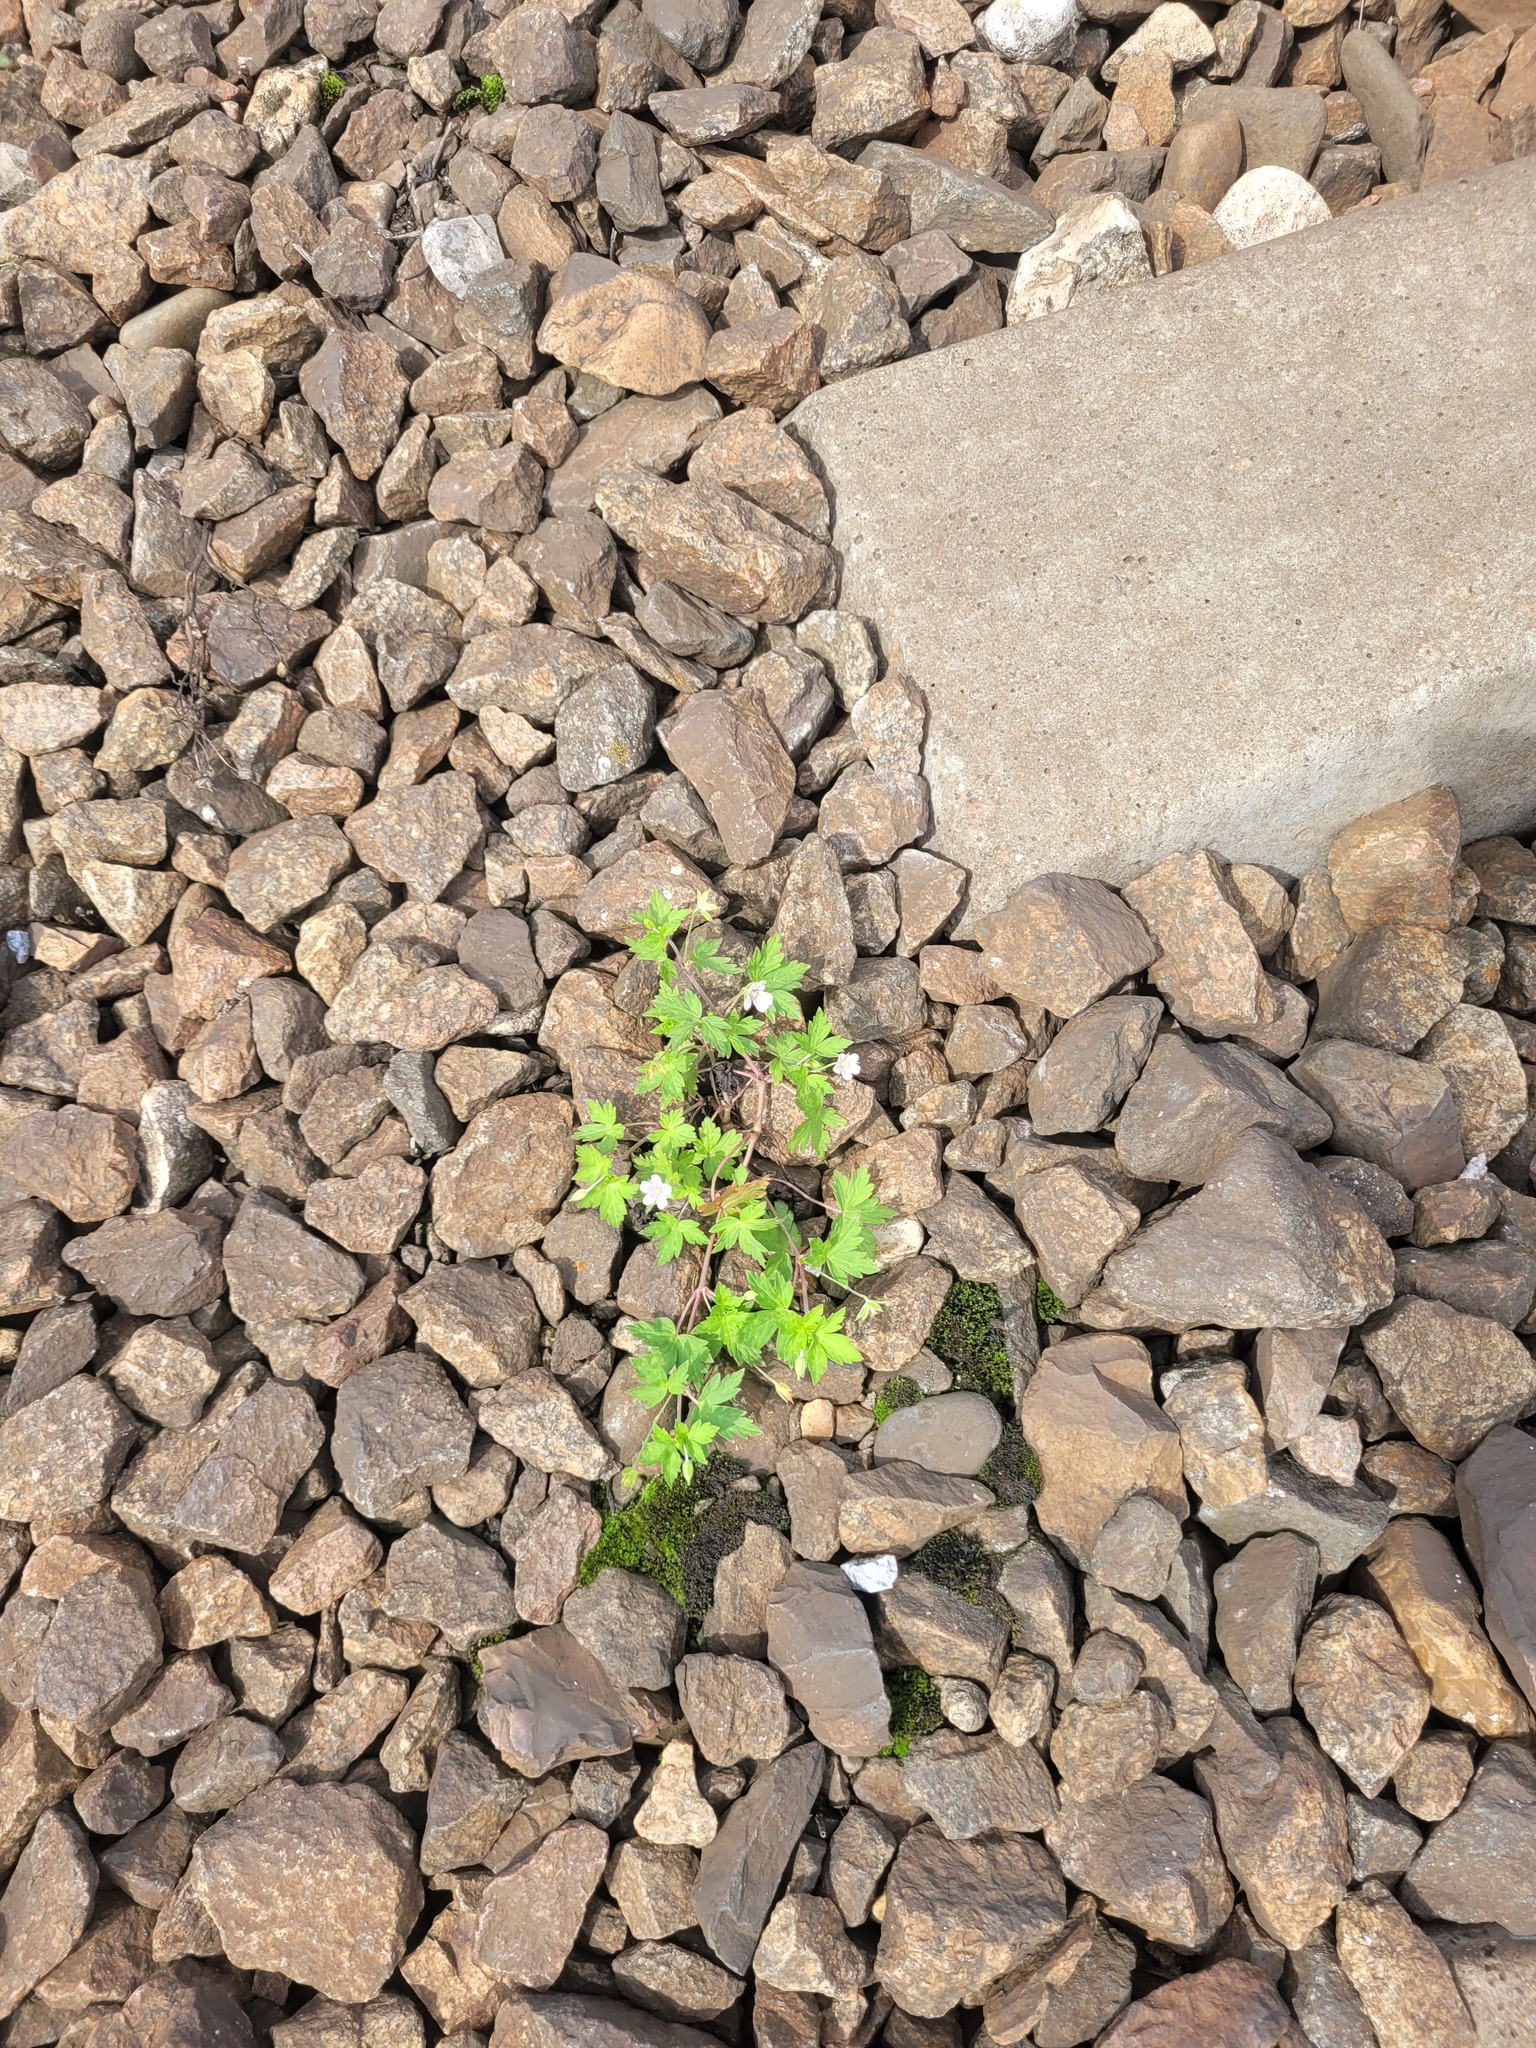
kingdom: Plantae
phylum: Tracheophyta
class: Magnoliopsida
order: Geraniales
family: Geraniaceae
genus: Geranium
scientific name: Geranium sibiricum
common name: Siberian crane's-bill
